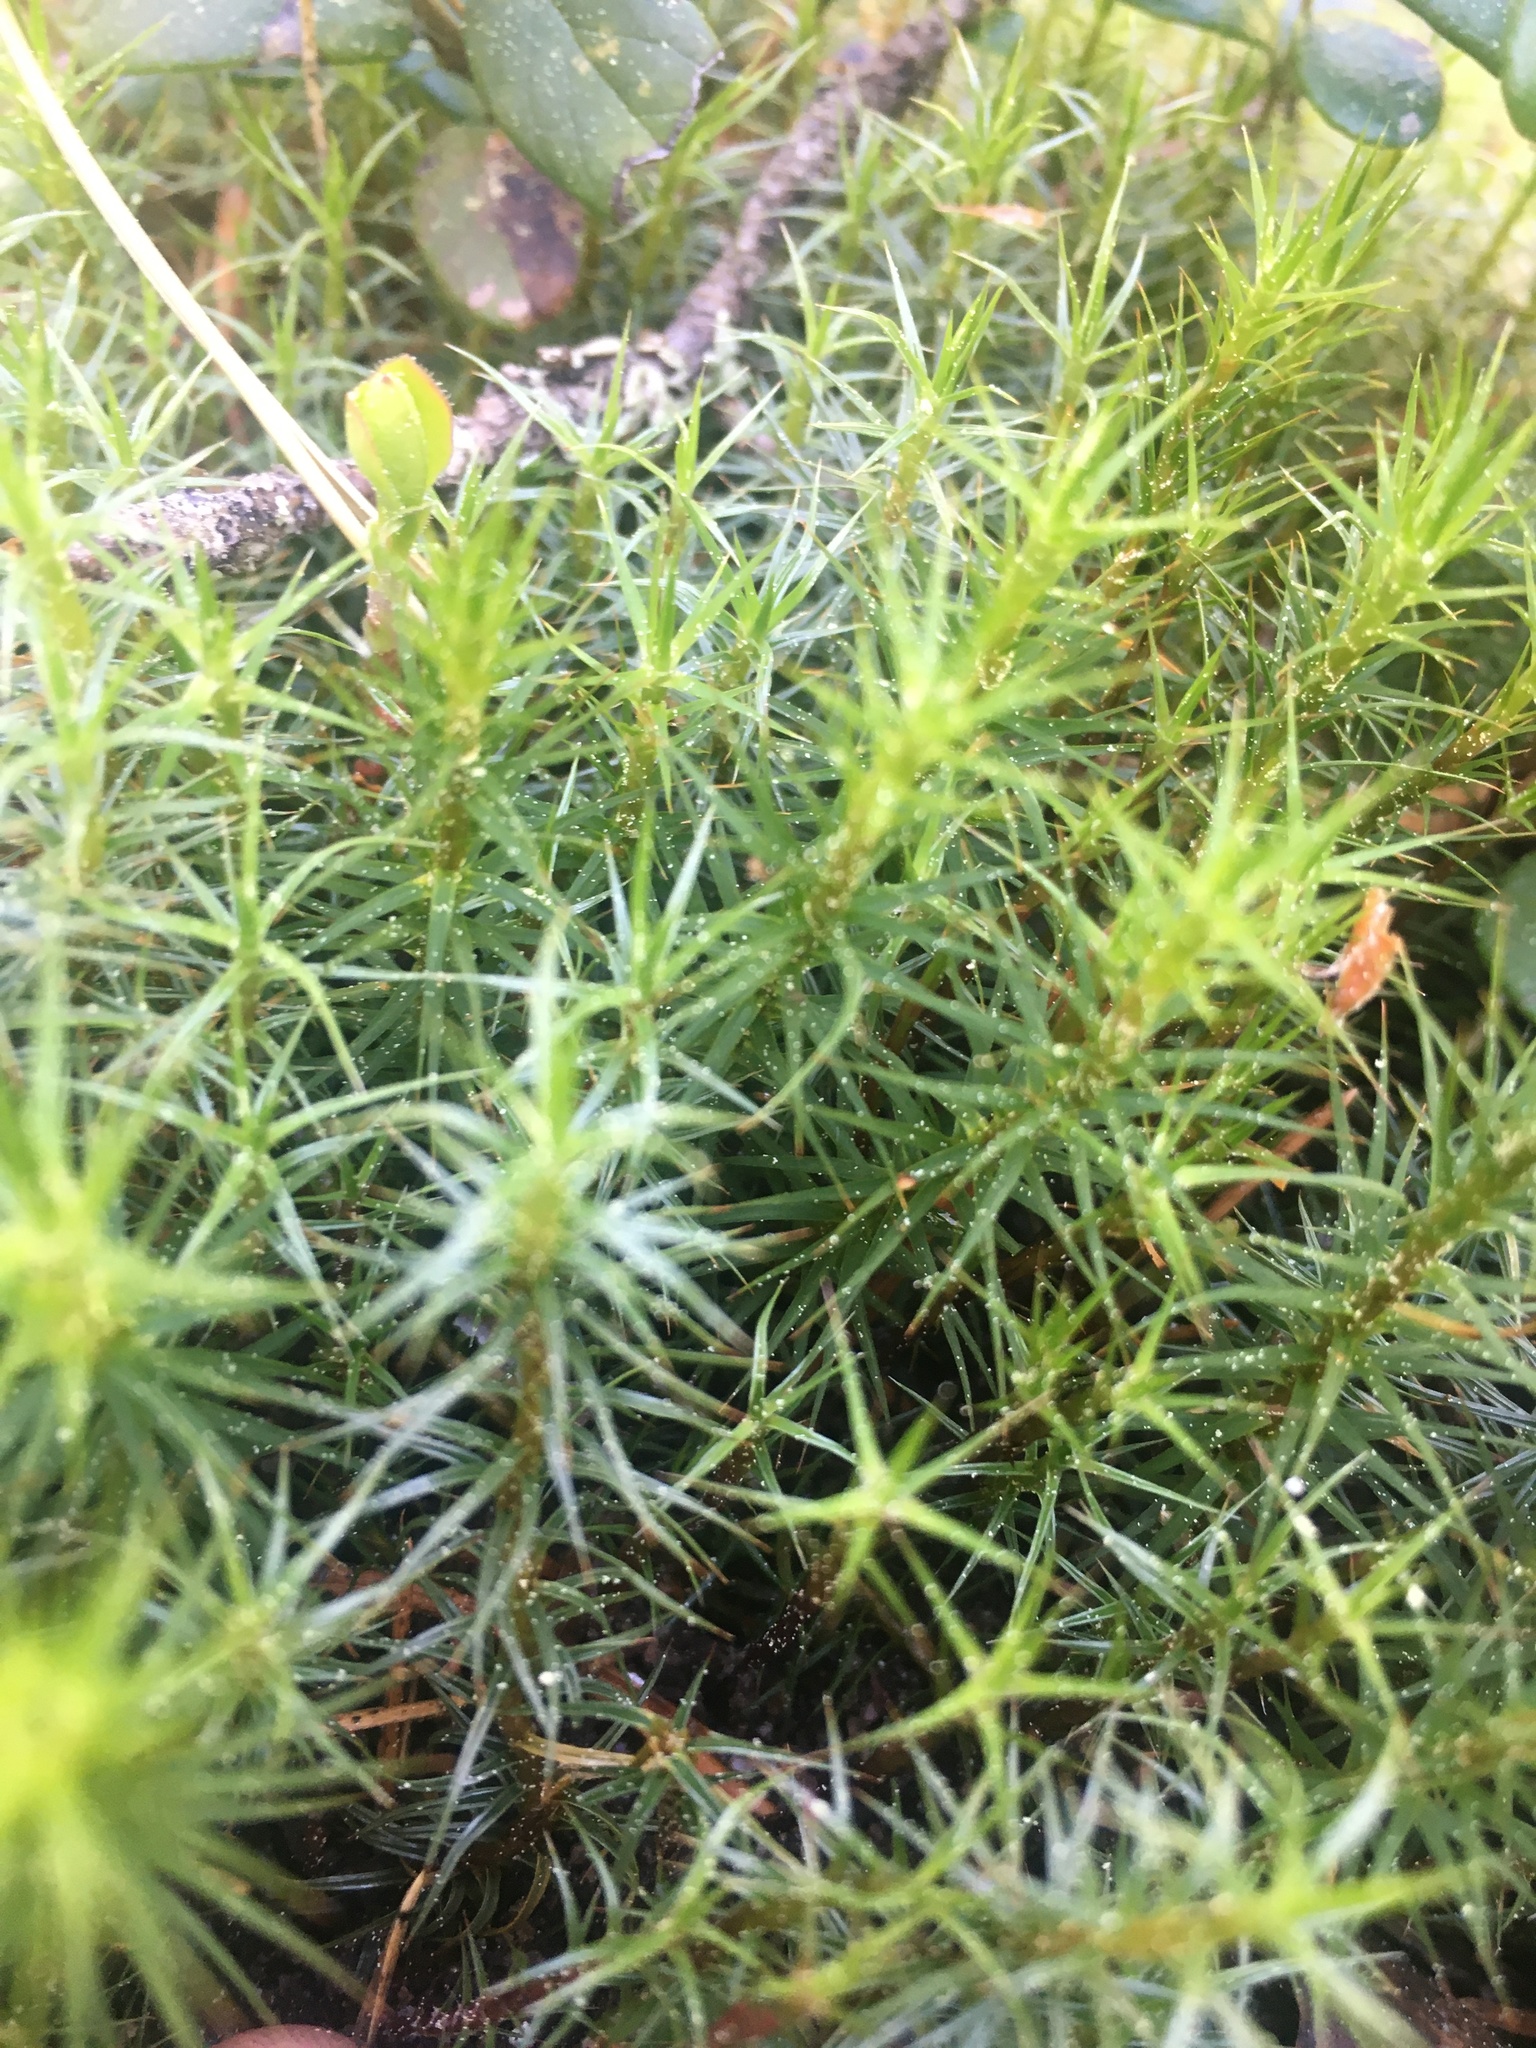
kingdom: Plantae
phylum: Bryophyta
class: Polytrichopsida
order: Polytrichales
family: Polytrichaceae
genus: Polytrichum
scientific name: Polytrichum commune
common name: Common haircap
